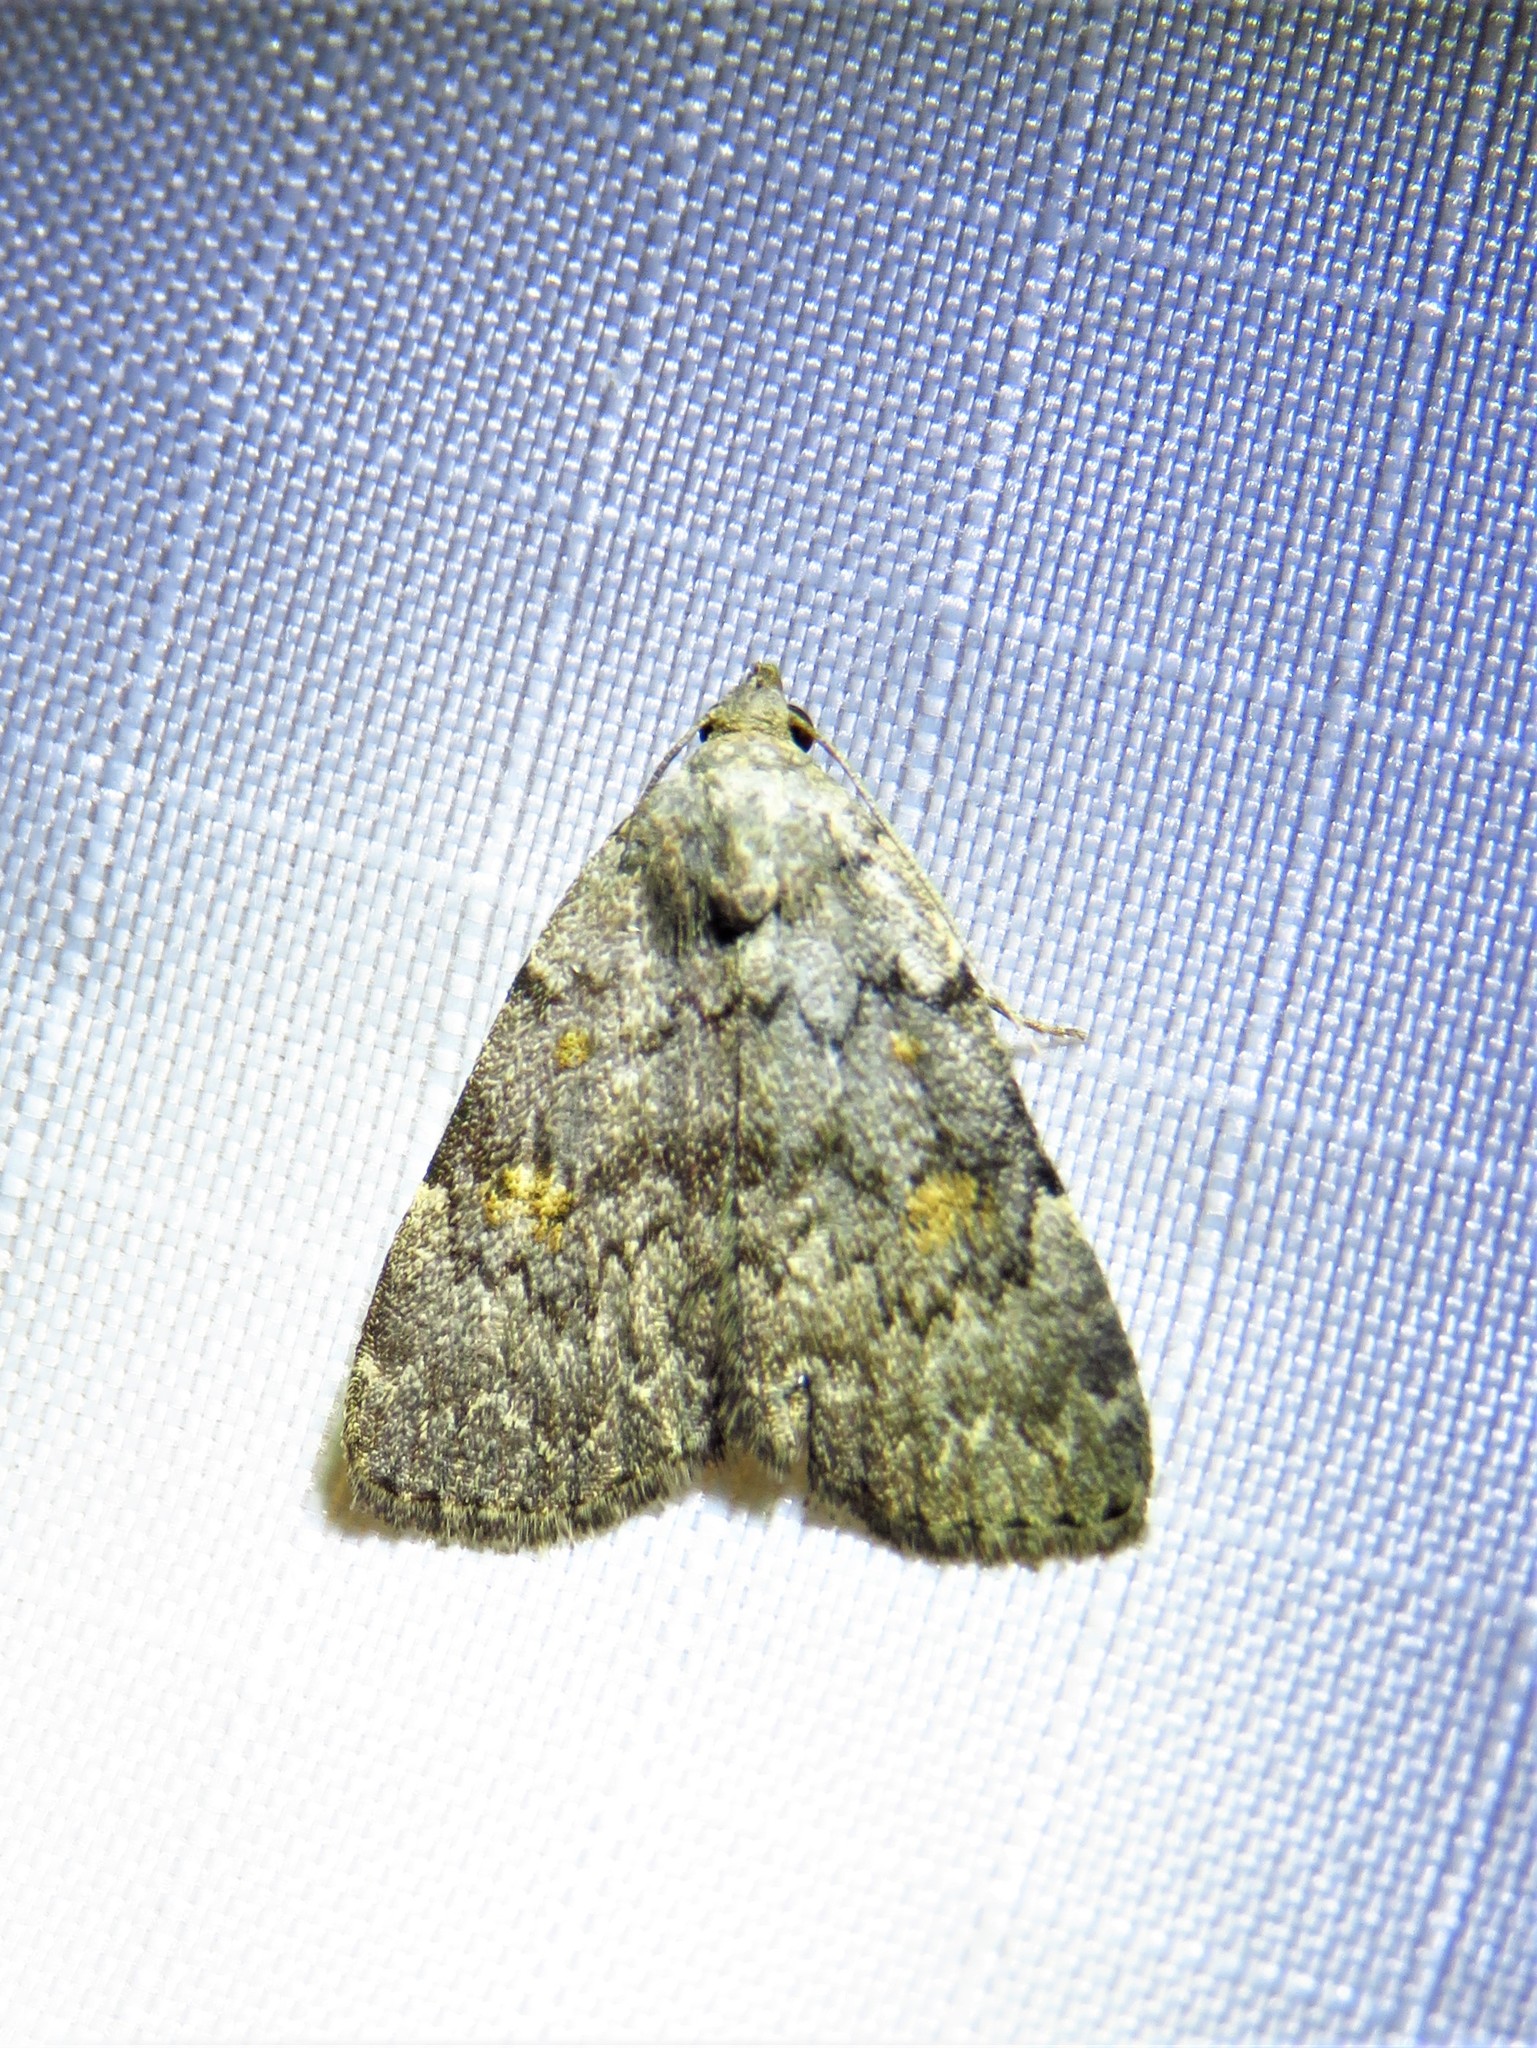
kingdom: Animalia
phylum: Arthropoda
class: Insecta
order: Lepidoptera
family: Erebidae
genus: Idia
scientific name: Idia aemula
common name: Common idia moth
